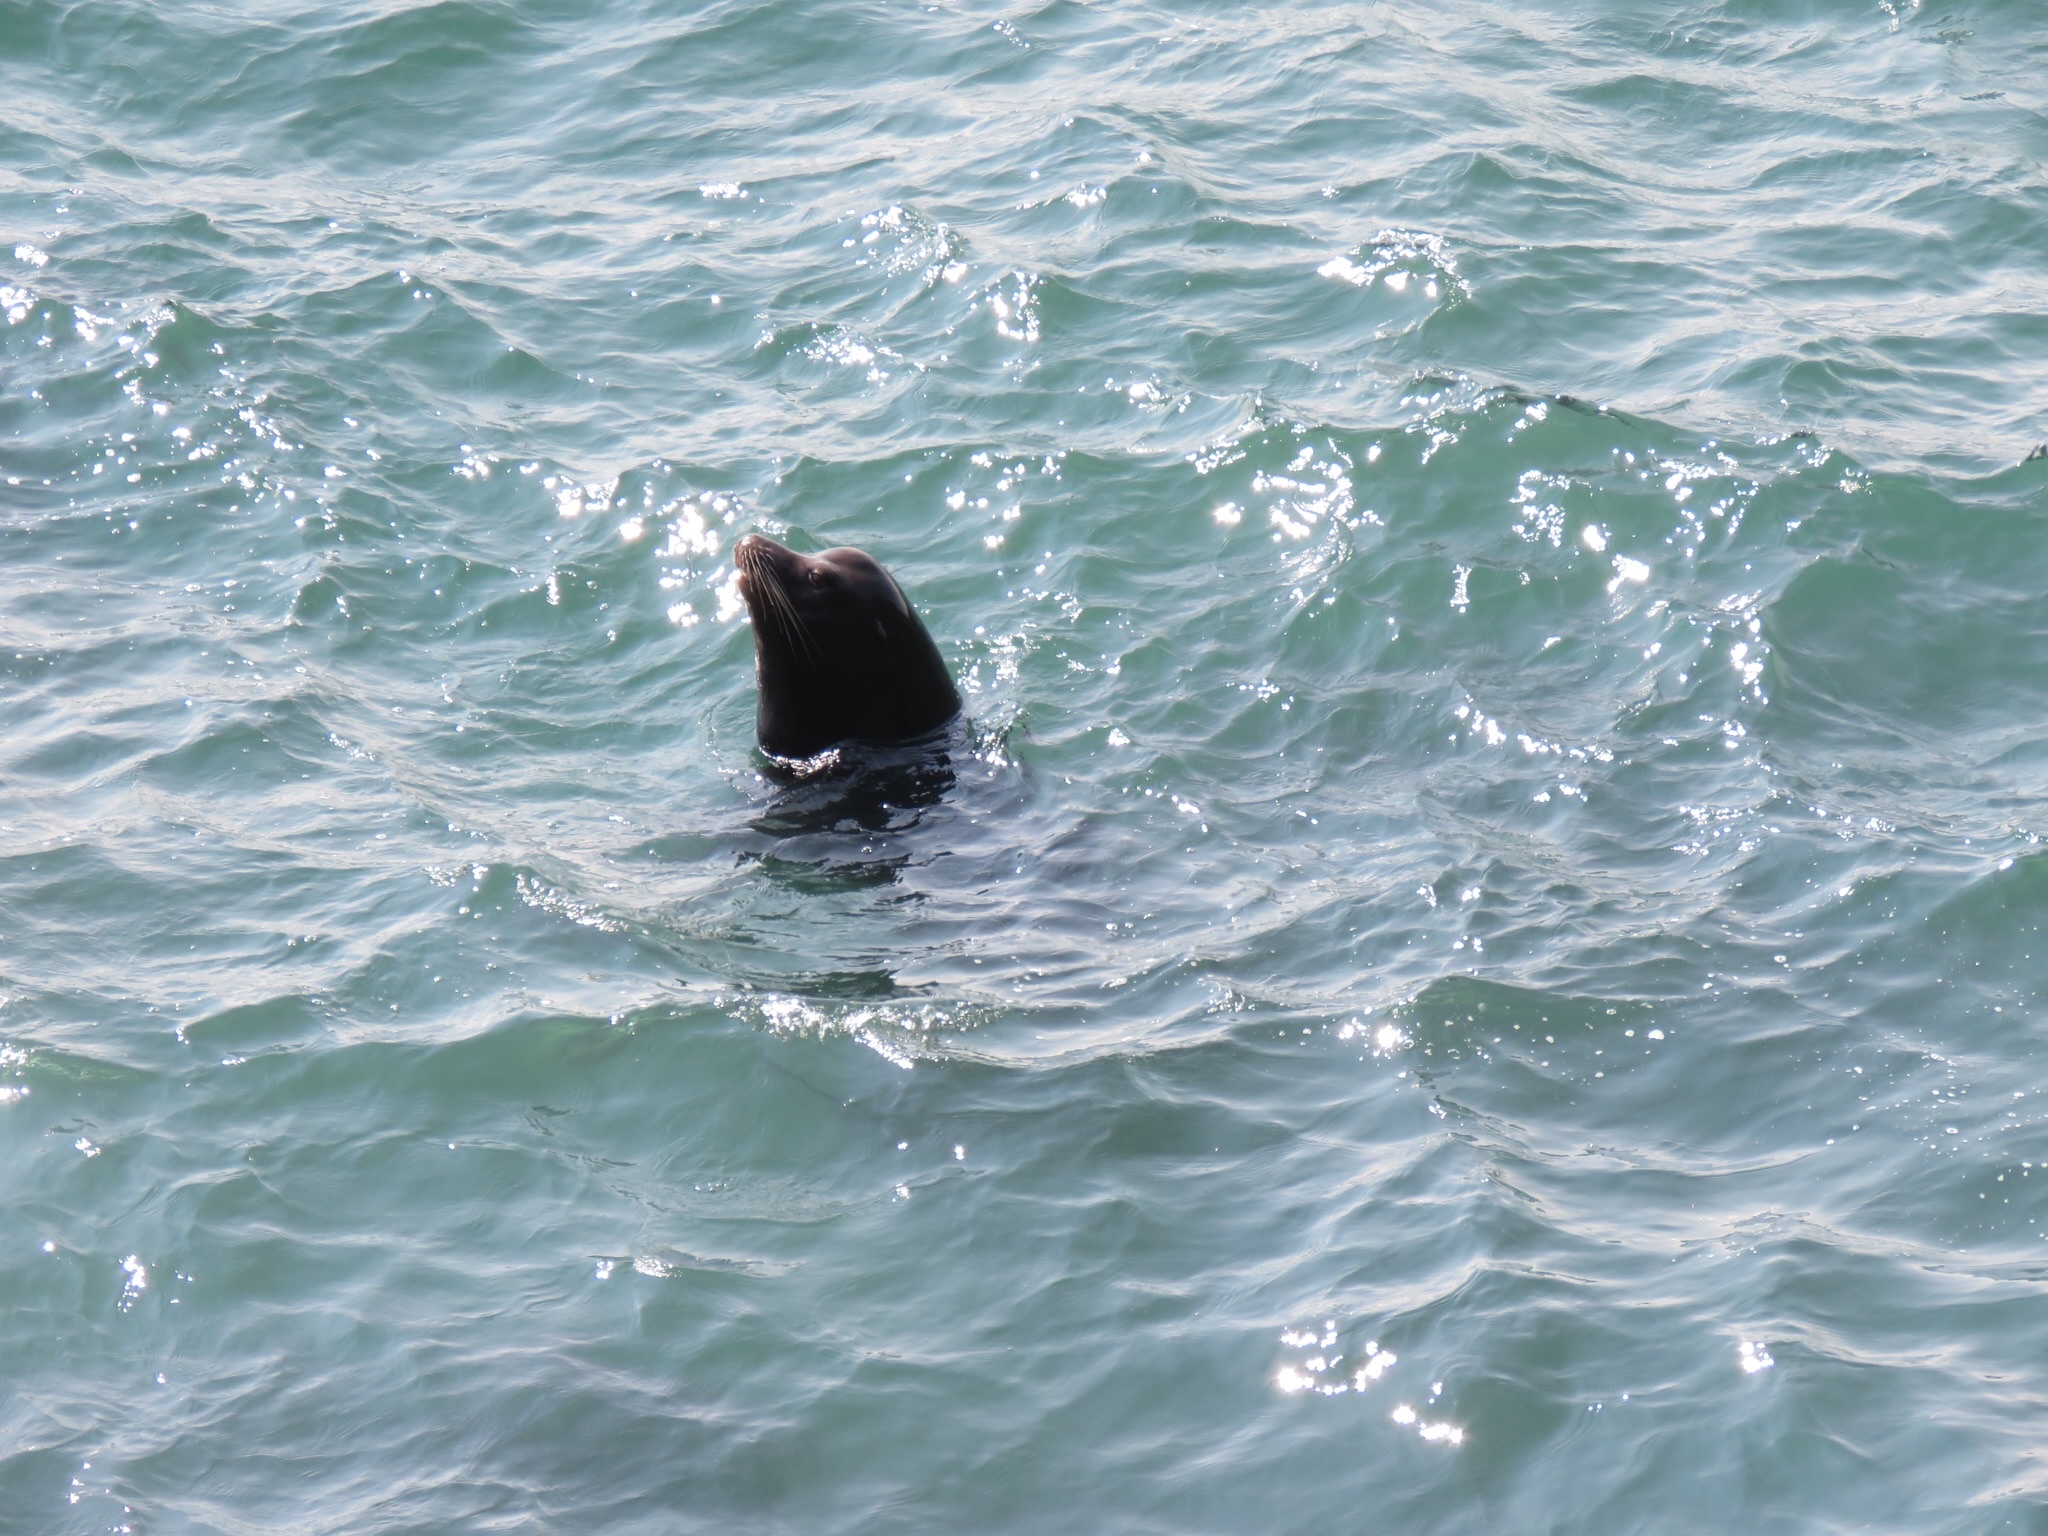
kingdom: Animalia
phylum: Chordata
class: Mammalia
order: Carnivora
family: Otariidae
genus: Zalophus
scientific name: Zalophus californianus
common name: California sea lion
